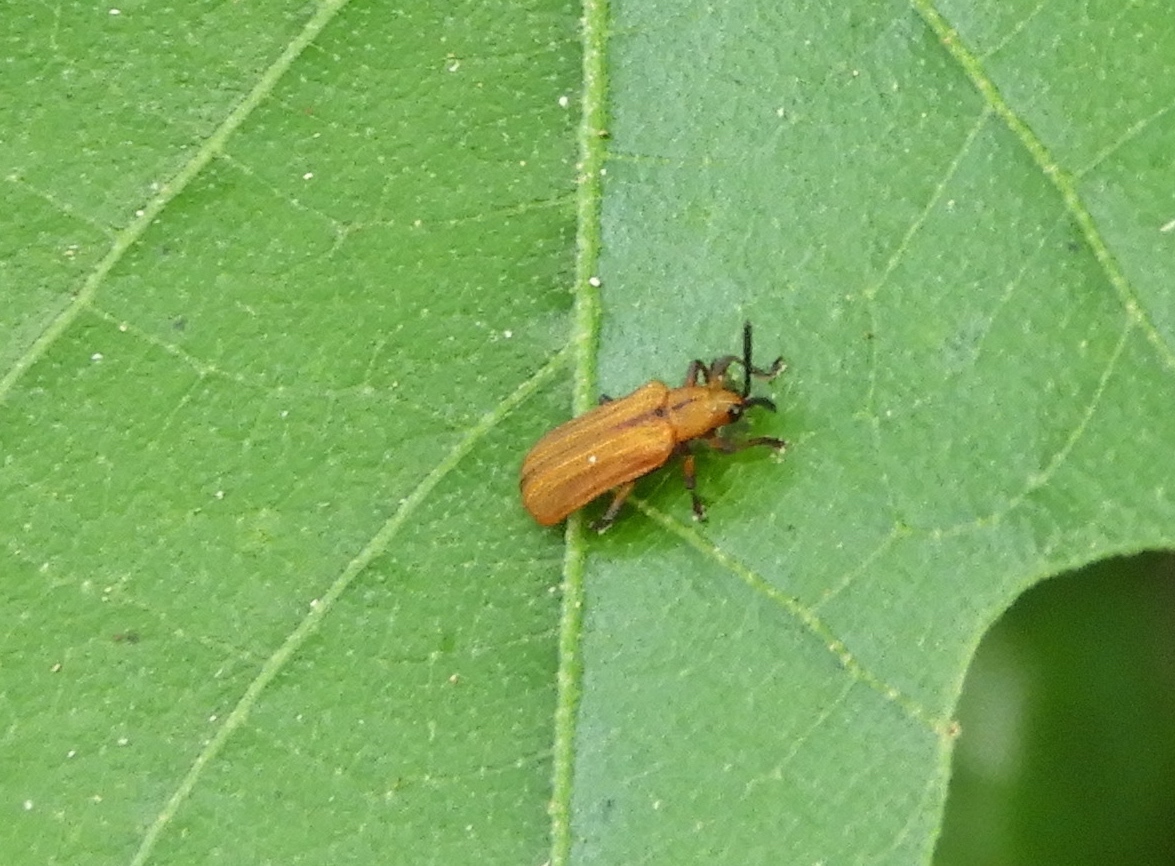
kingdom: Animalia
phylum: Arthropoda
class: Insecta
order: Coleoptera
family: Chrysomelidae
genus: Chalepus
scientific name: Chalepus digressus
